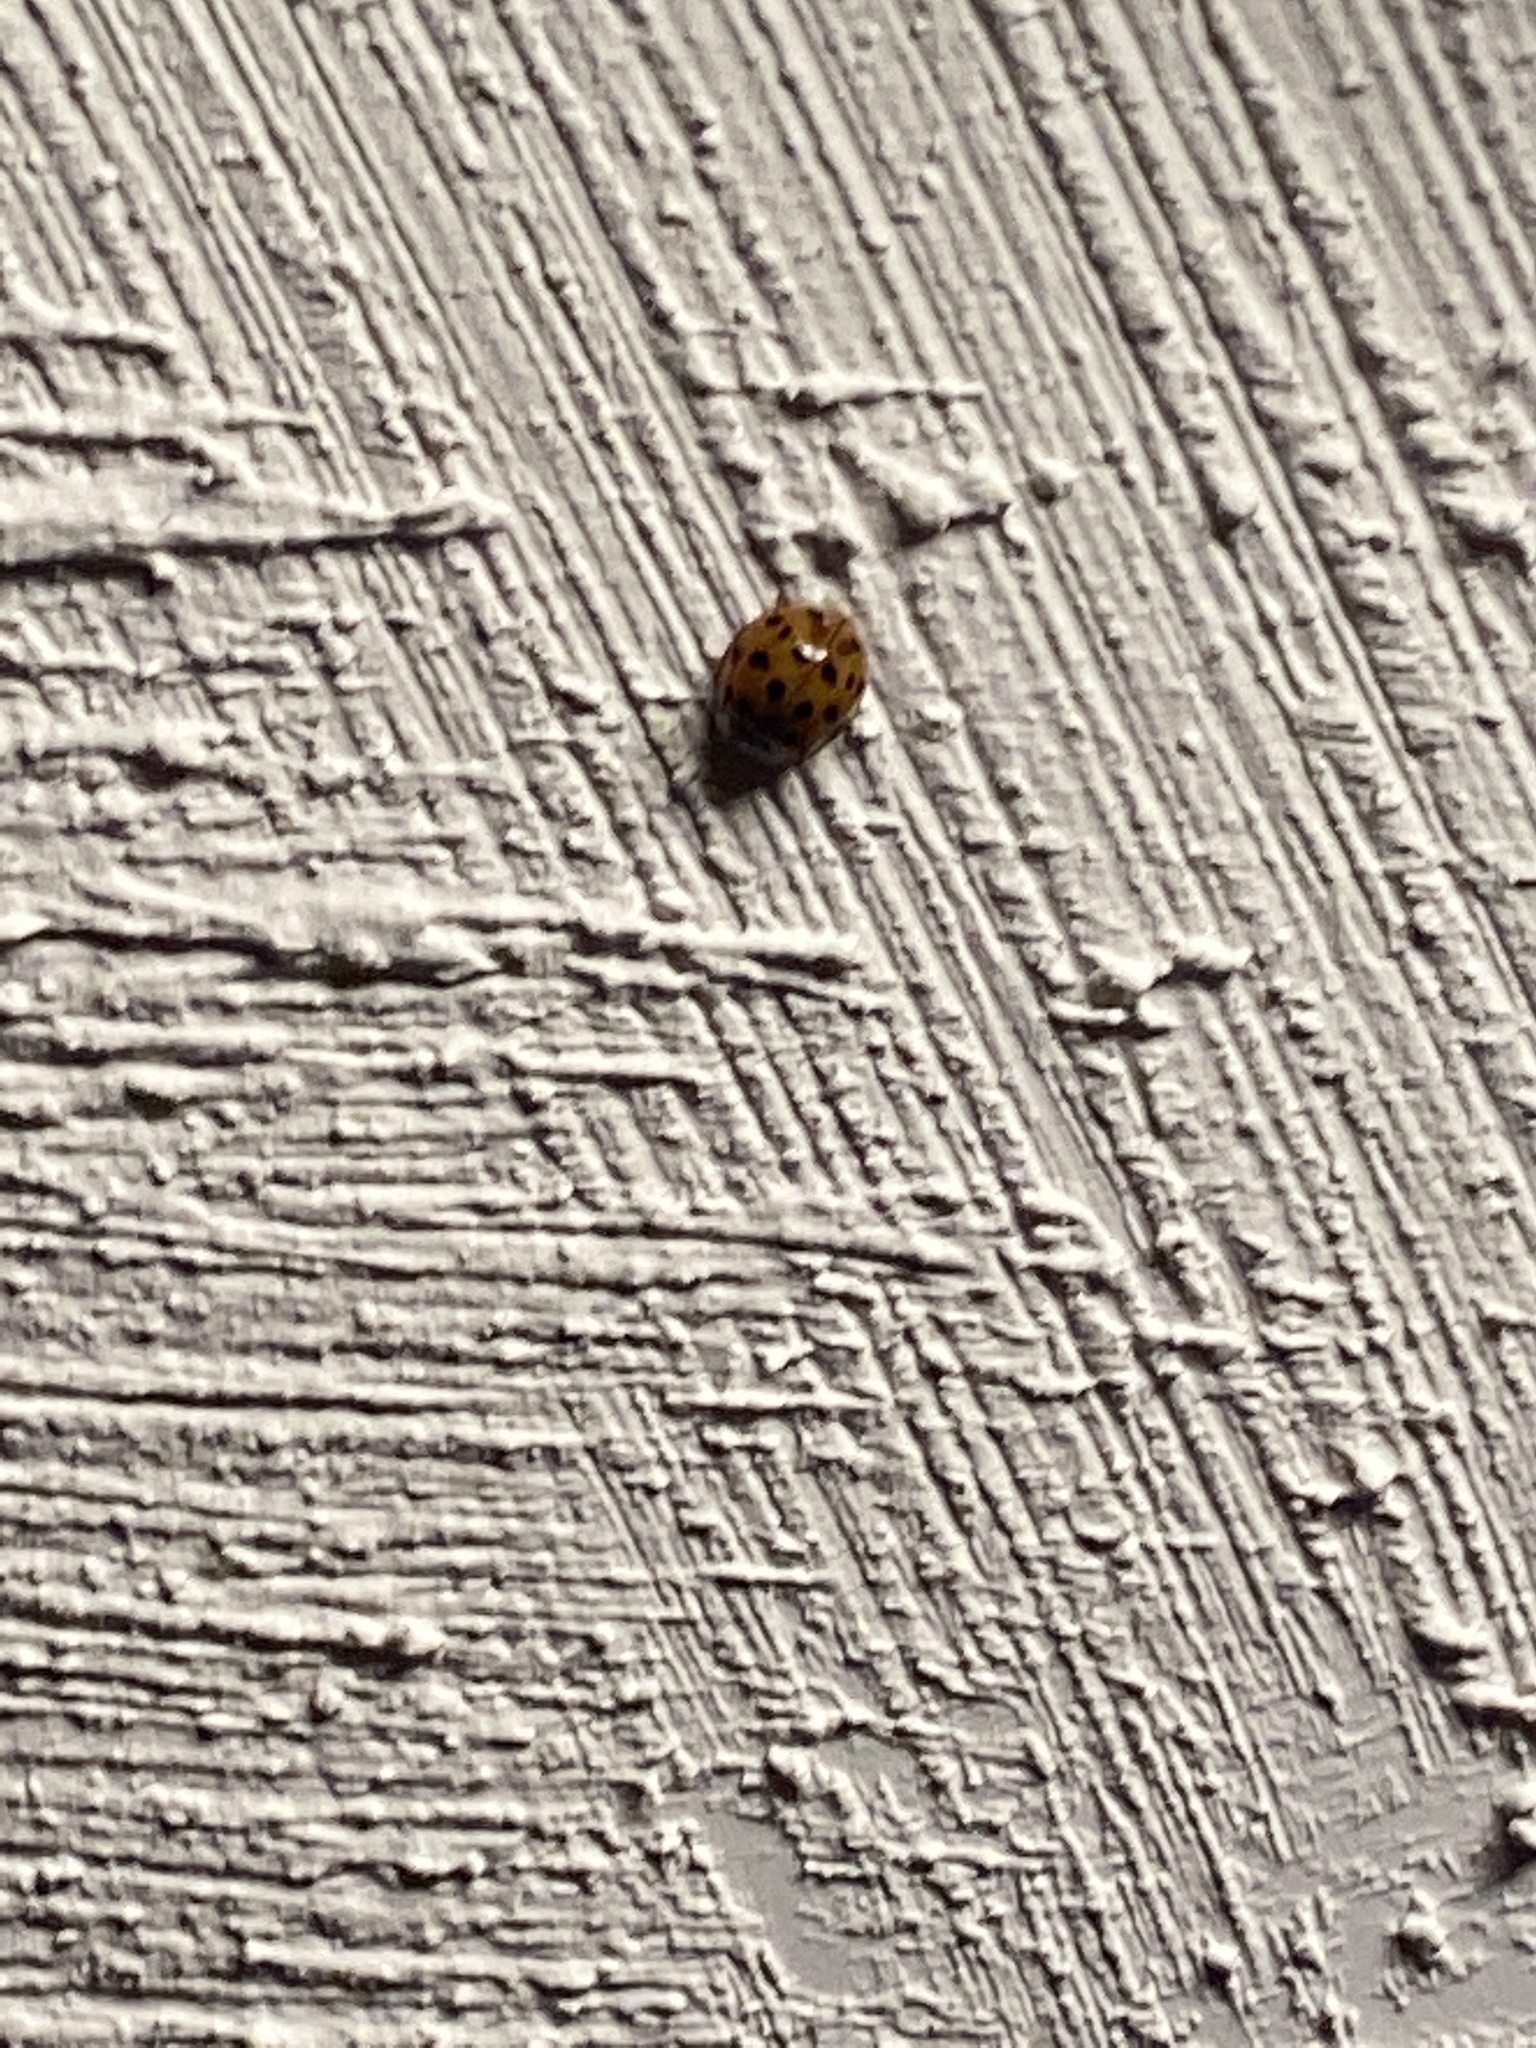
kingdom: Animalia
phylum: Arthropoda
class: Insecta
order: Coleoptera
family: Coccinellidae
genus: Harmonia
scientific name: Harmonia axyridis
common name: Harlequin ladybird
